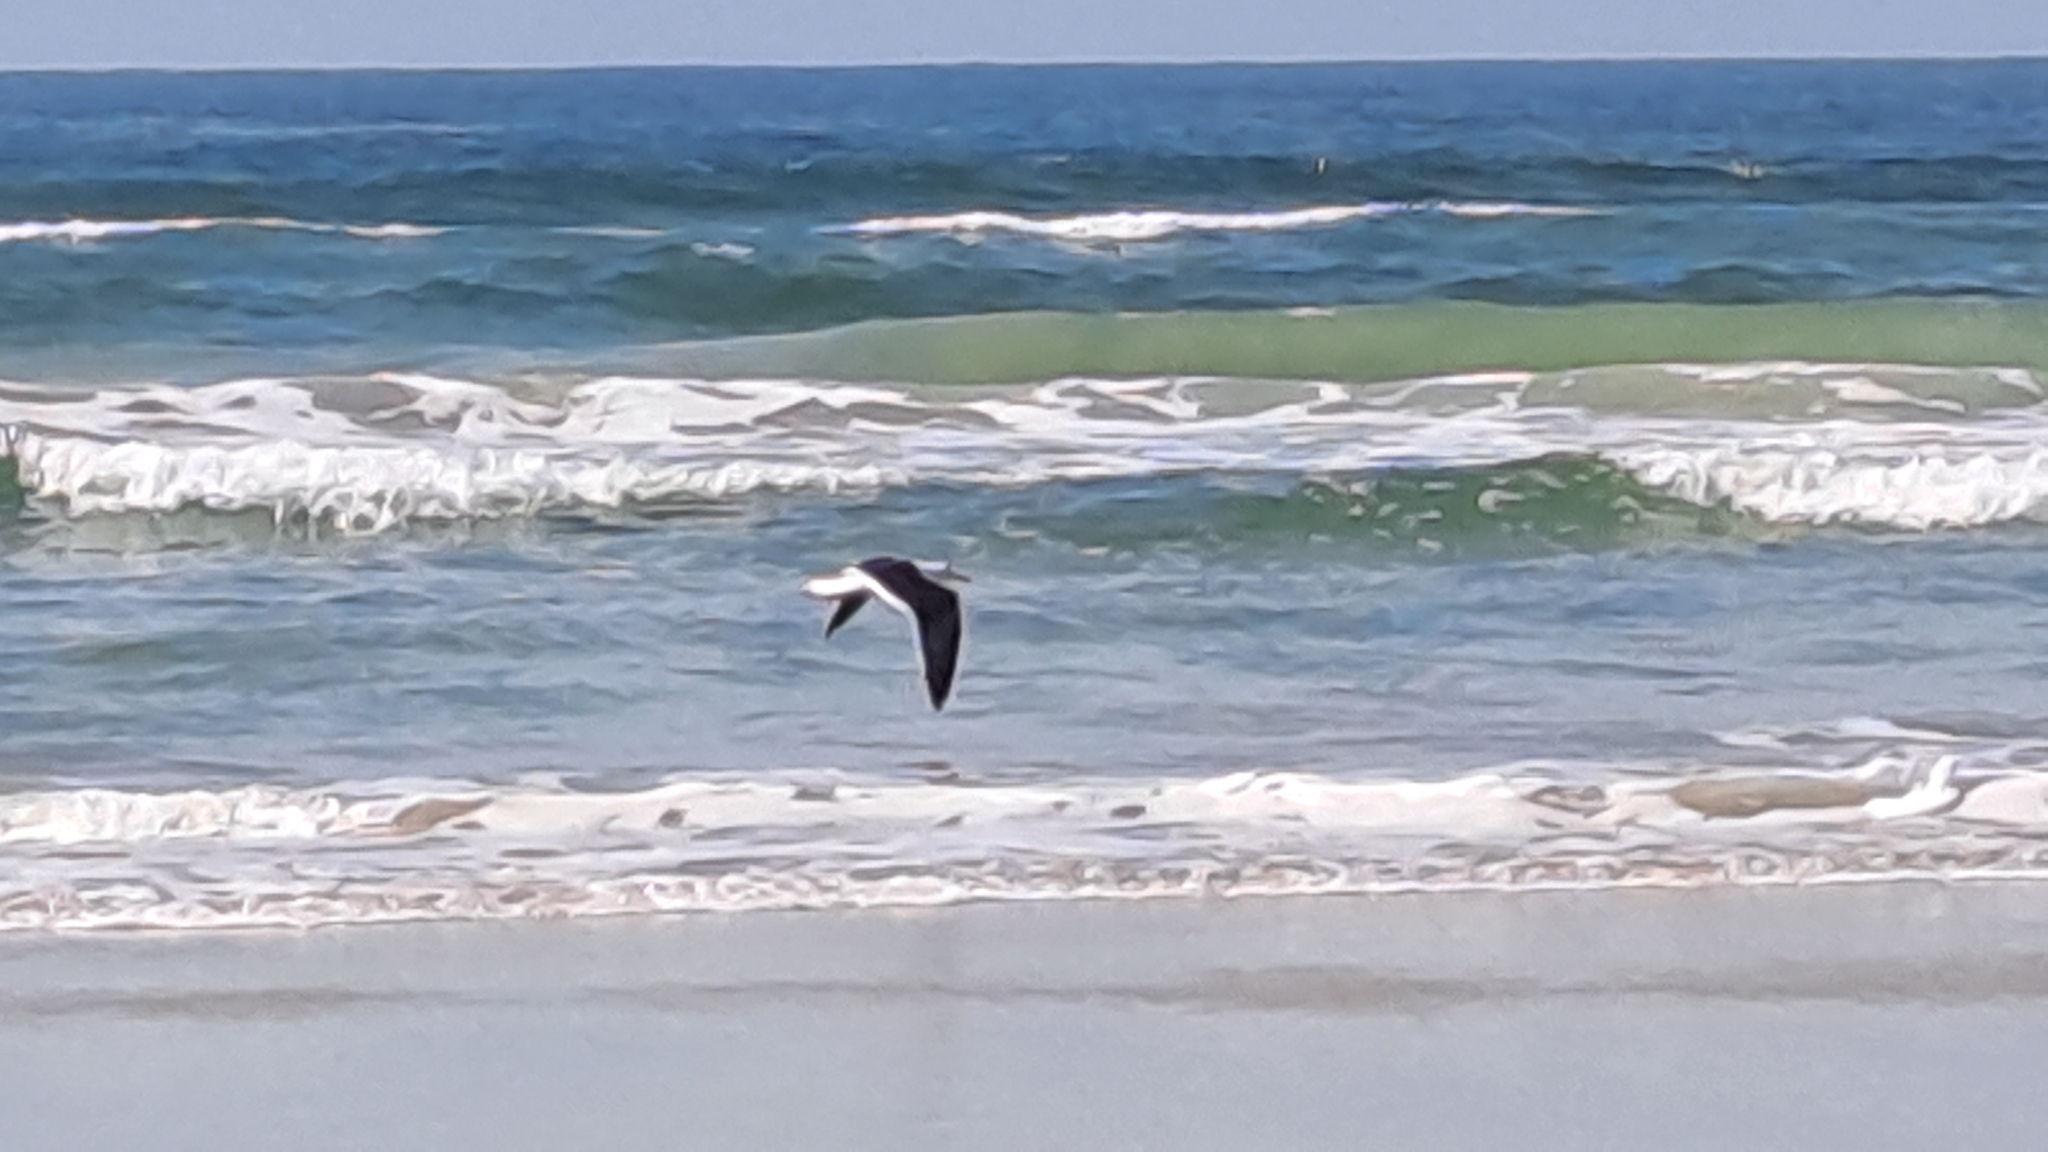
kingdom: Animalia
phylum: Chordata
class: Aves
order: Charadriiformes
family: Laridae
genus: Larus
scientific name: Larus dominicanus
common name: Kelp gull
